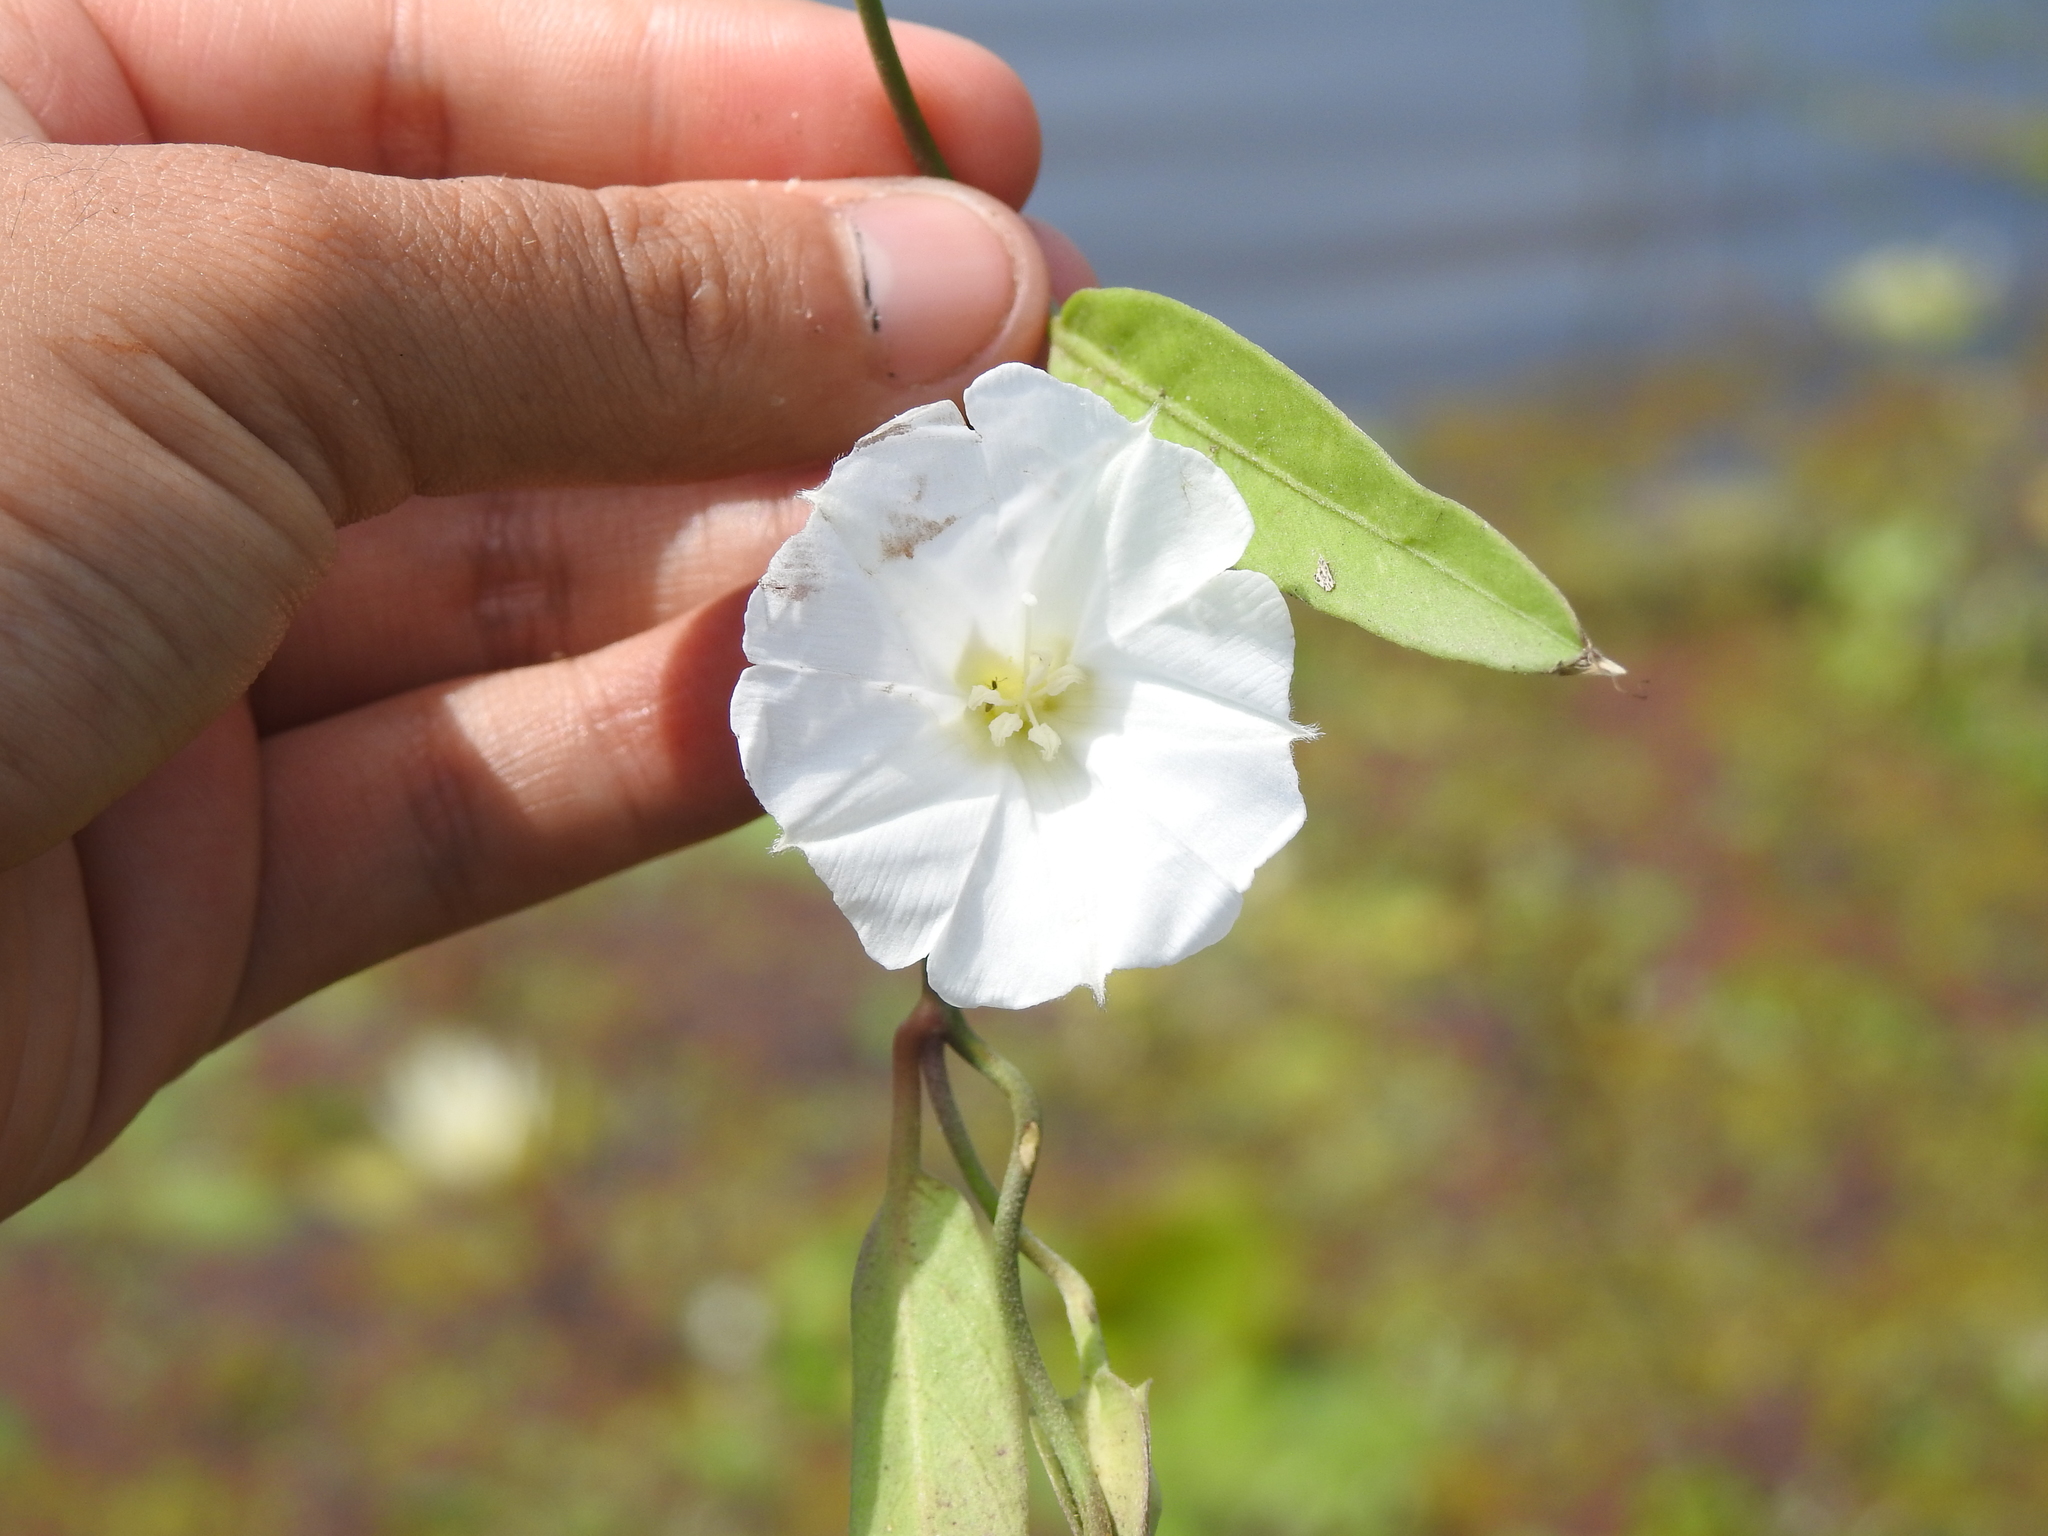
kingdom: Plantae
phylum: Tracheophyta
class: Magnoliopsida
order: Solanales
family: Convolvulaceae
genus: Aniseia
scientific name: Aniseia martinicensis
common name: Kulayadambu
